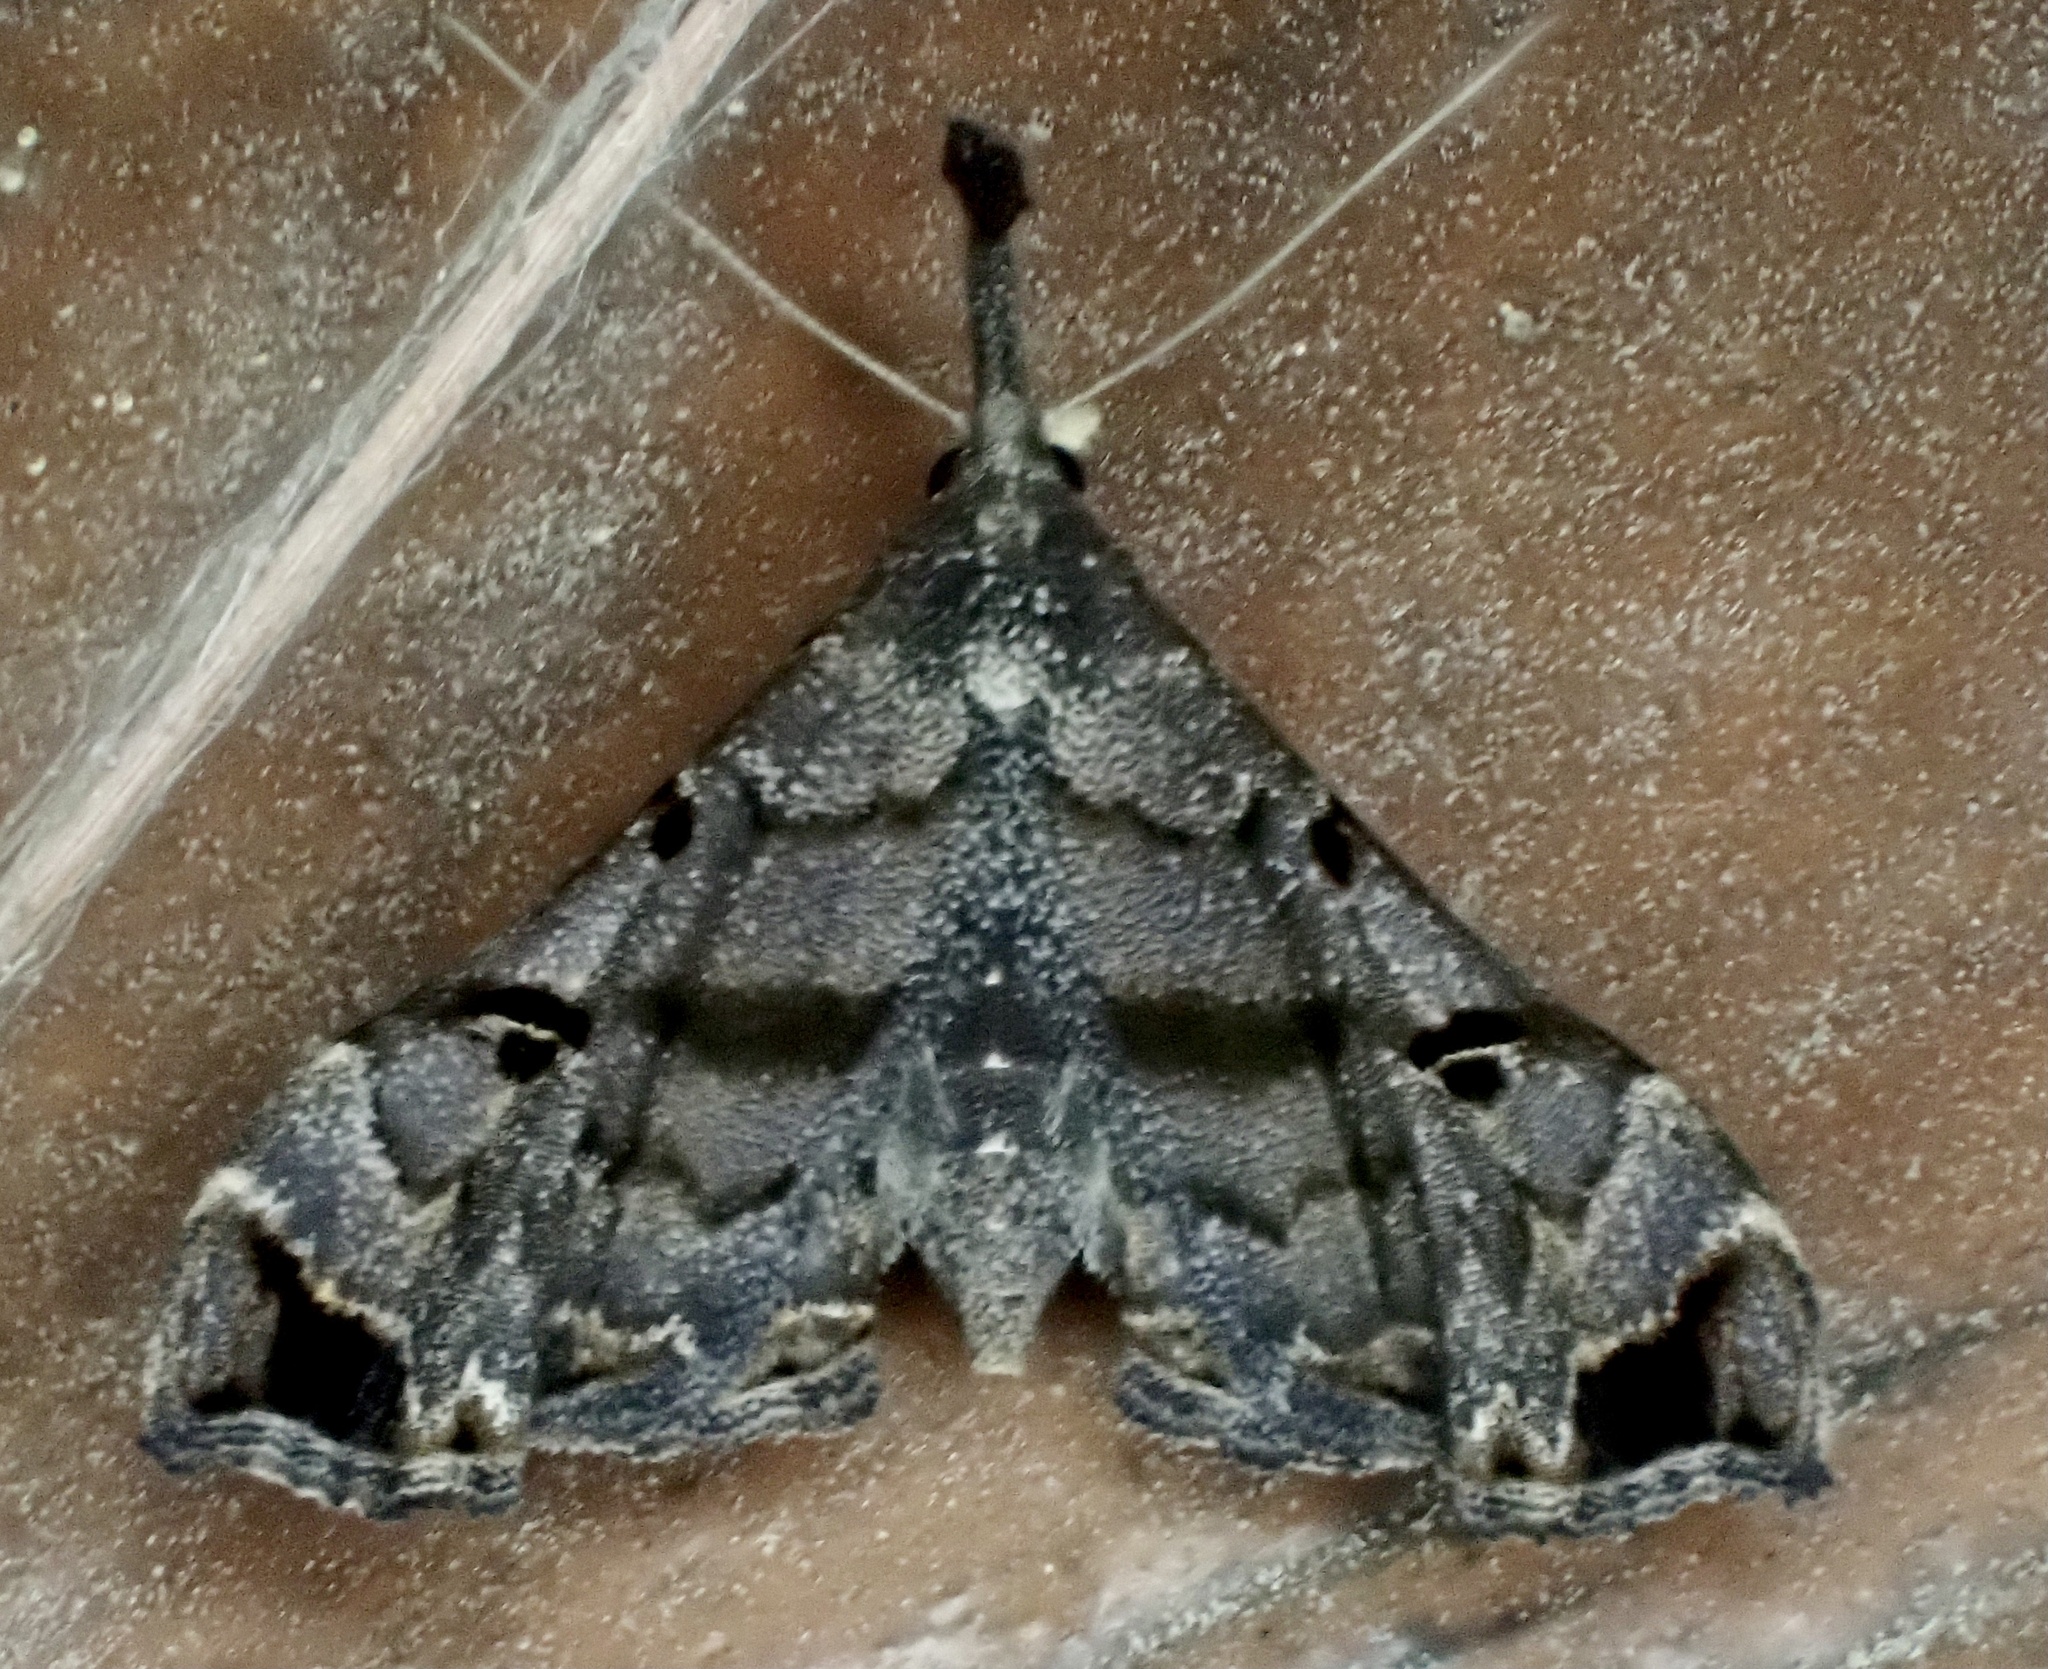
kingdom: Animalia
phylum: Arthropoda
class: Insecta
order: Lepidoptera
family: Erebidae
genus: Palthis
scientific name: Palthis asopialis
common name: Faint-spotted palthis moth
